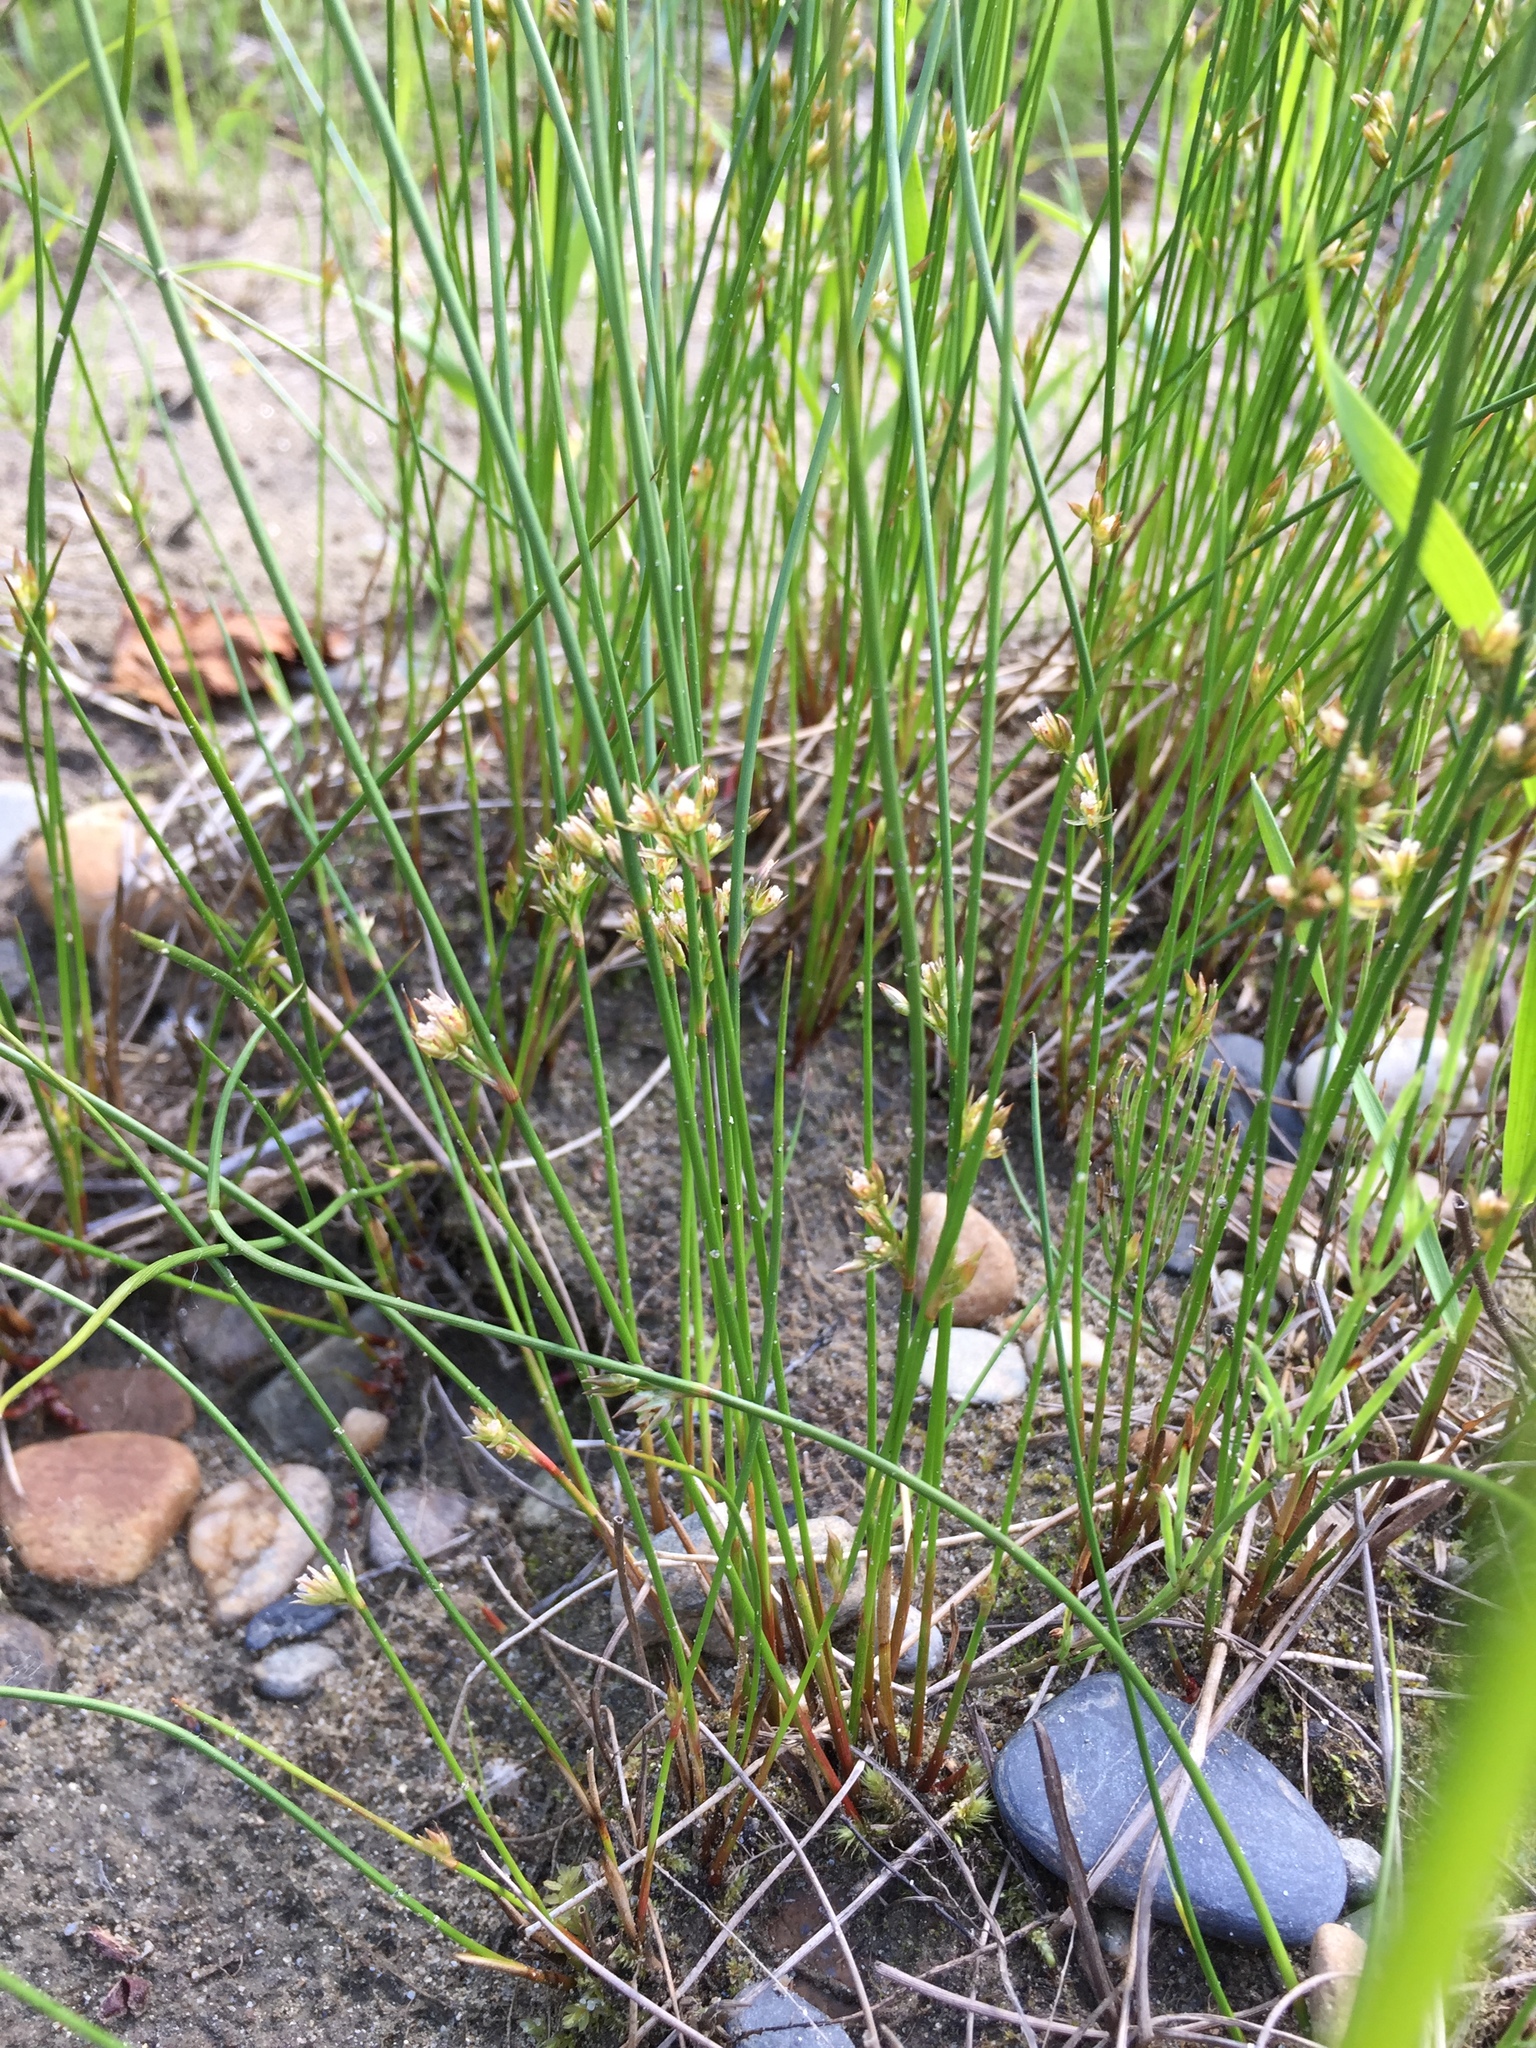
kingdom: Plantae
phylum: Tracheophyta
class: Liliopsida
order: Poales
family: Juncaceae
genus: Juncus
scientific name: Juncus filiformis
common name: Thread rush
